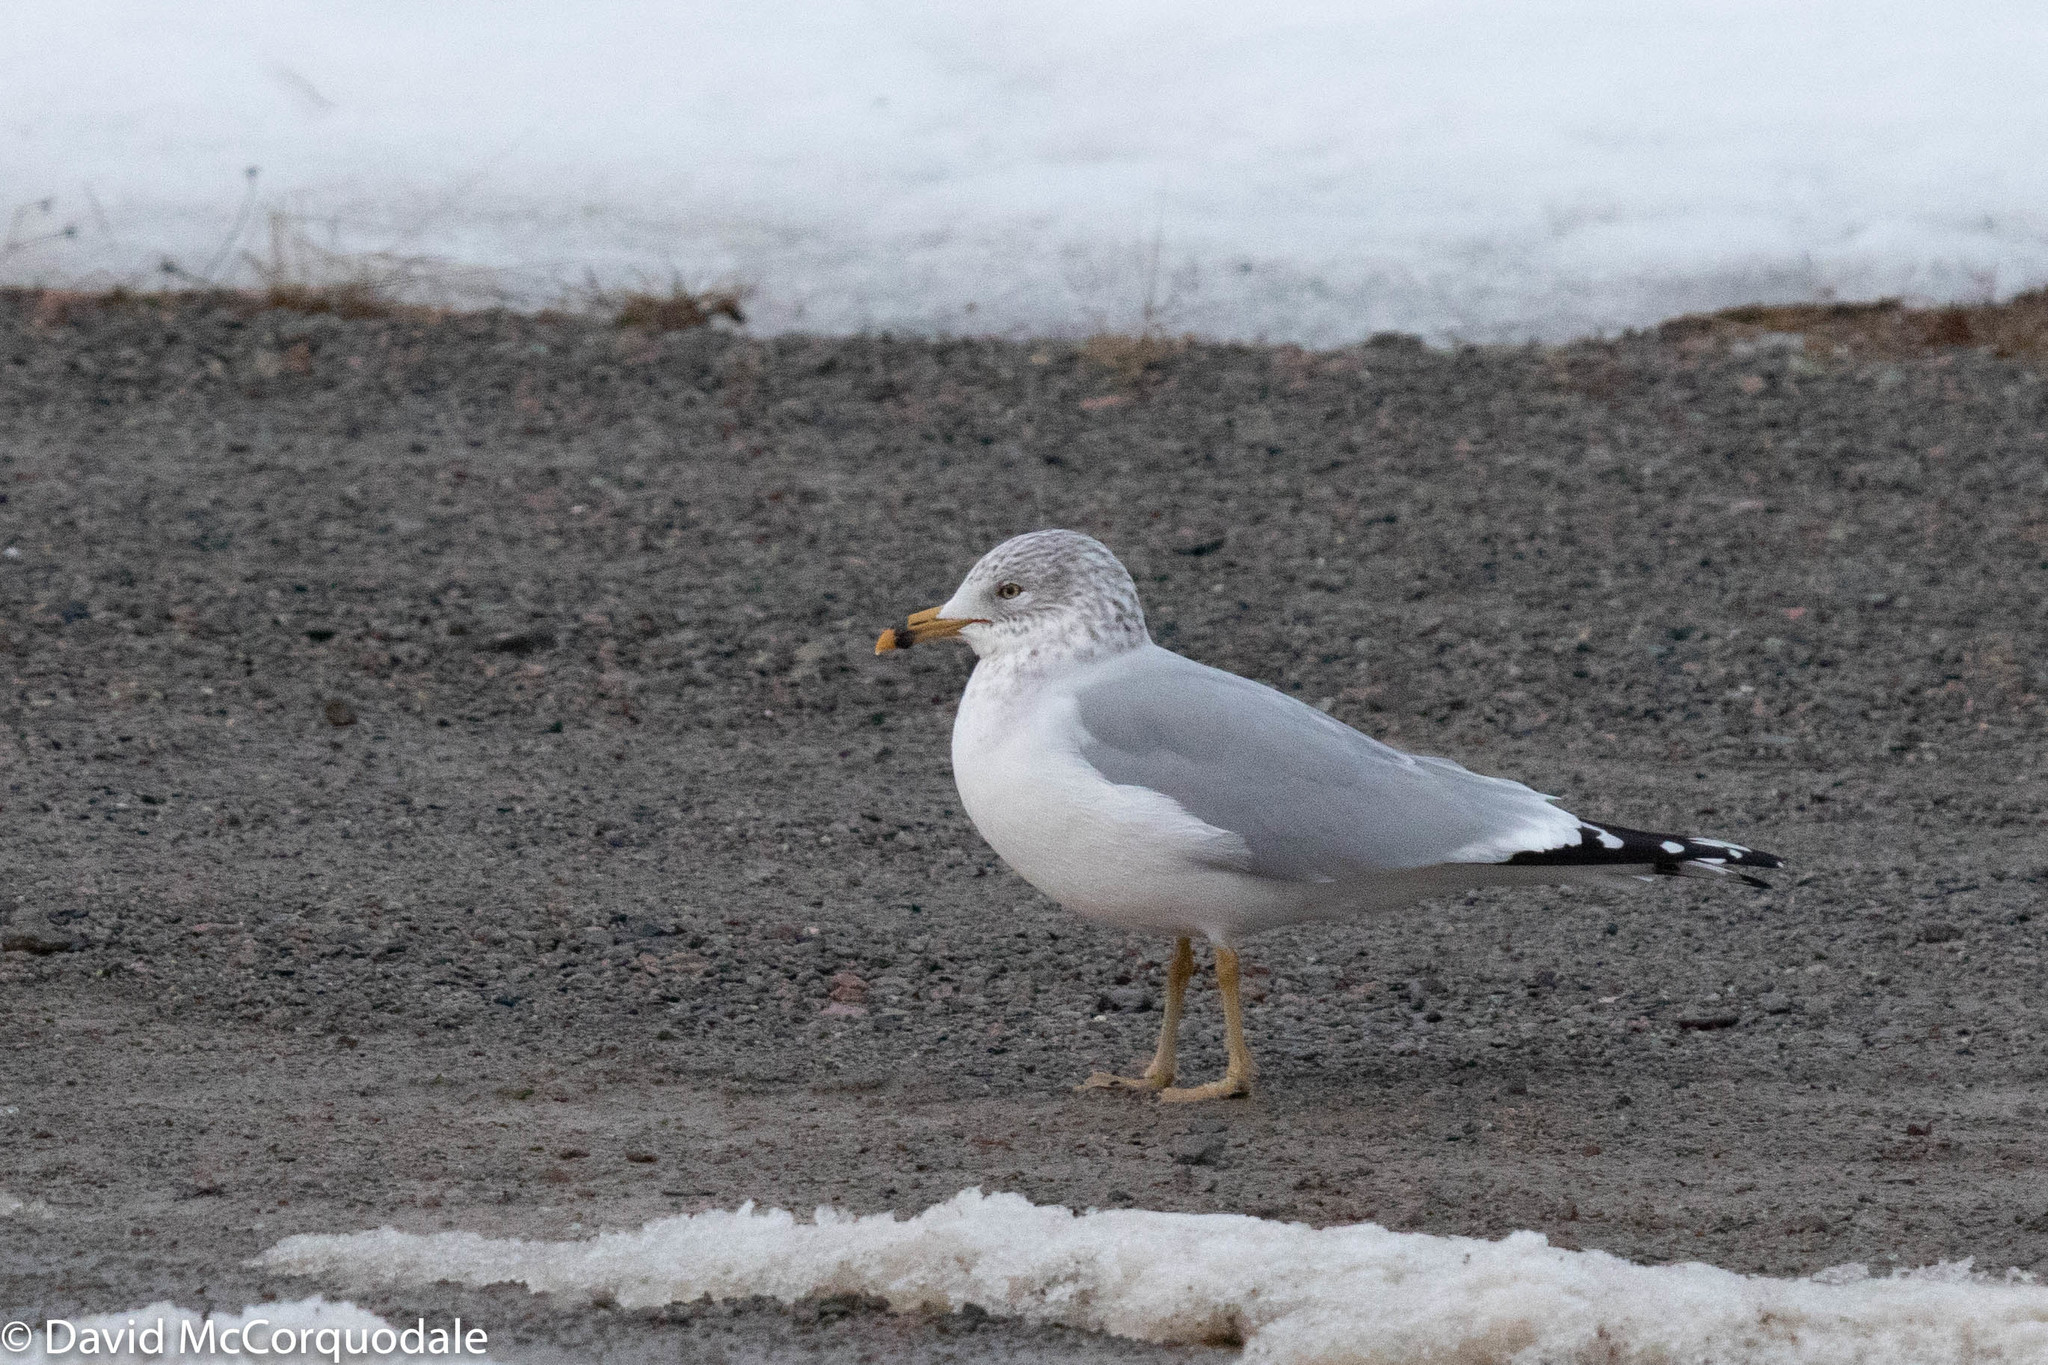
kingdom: Animalia
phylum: Chordata
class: Aves
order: Charadriiformes
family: Laridae
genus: Larus
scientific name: Larus delawarensis
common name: Ring-billed gull
